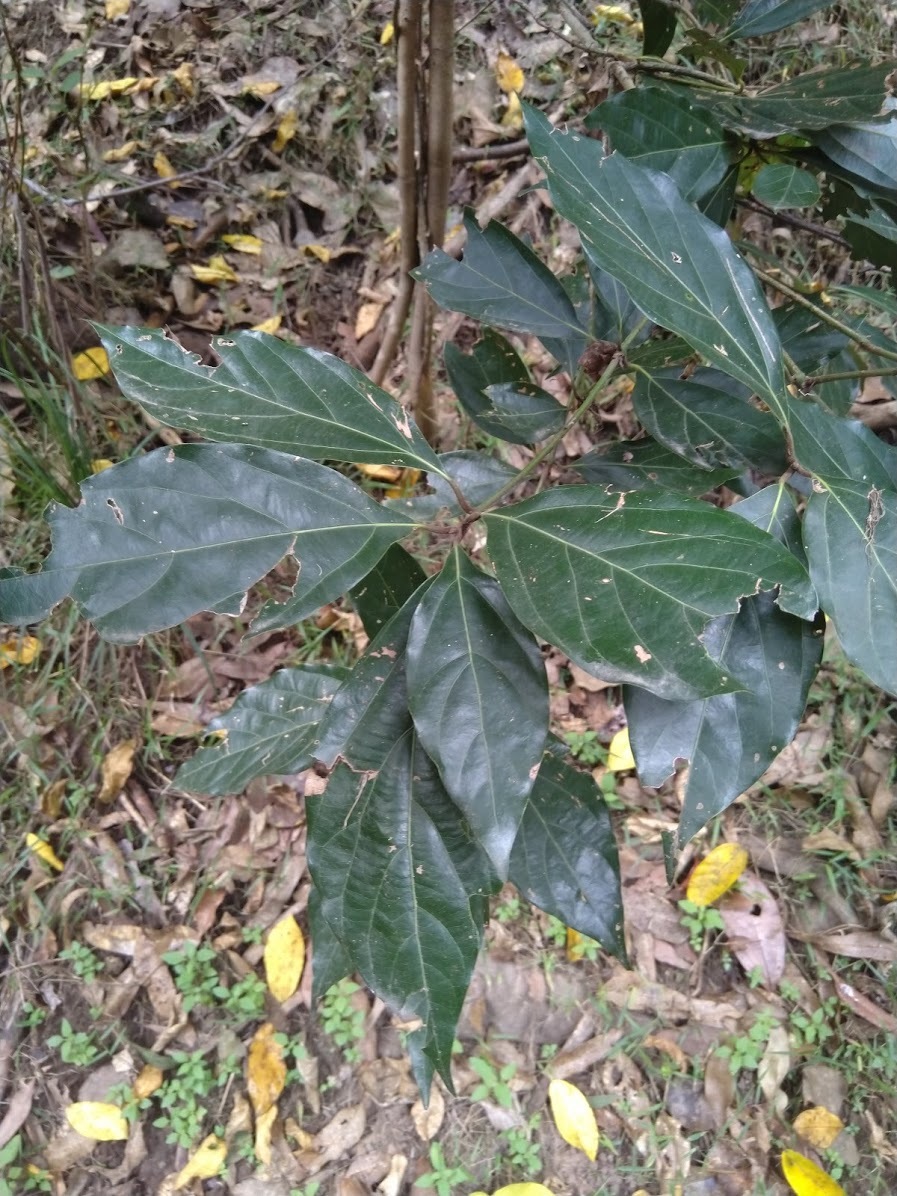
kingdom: Plantae
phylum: Tracheophyta
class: Magnoliopsida
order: Laurales
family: Lauraceae
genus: Neolitsea
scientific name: Neolitsea dealbata
